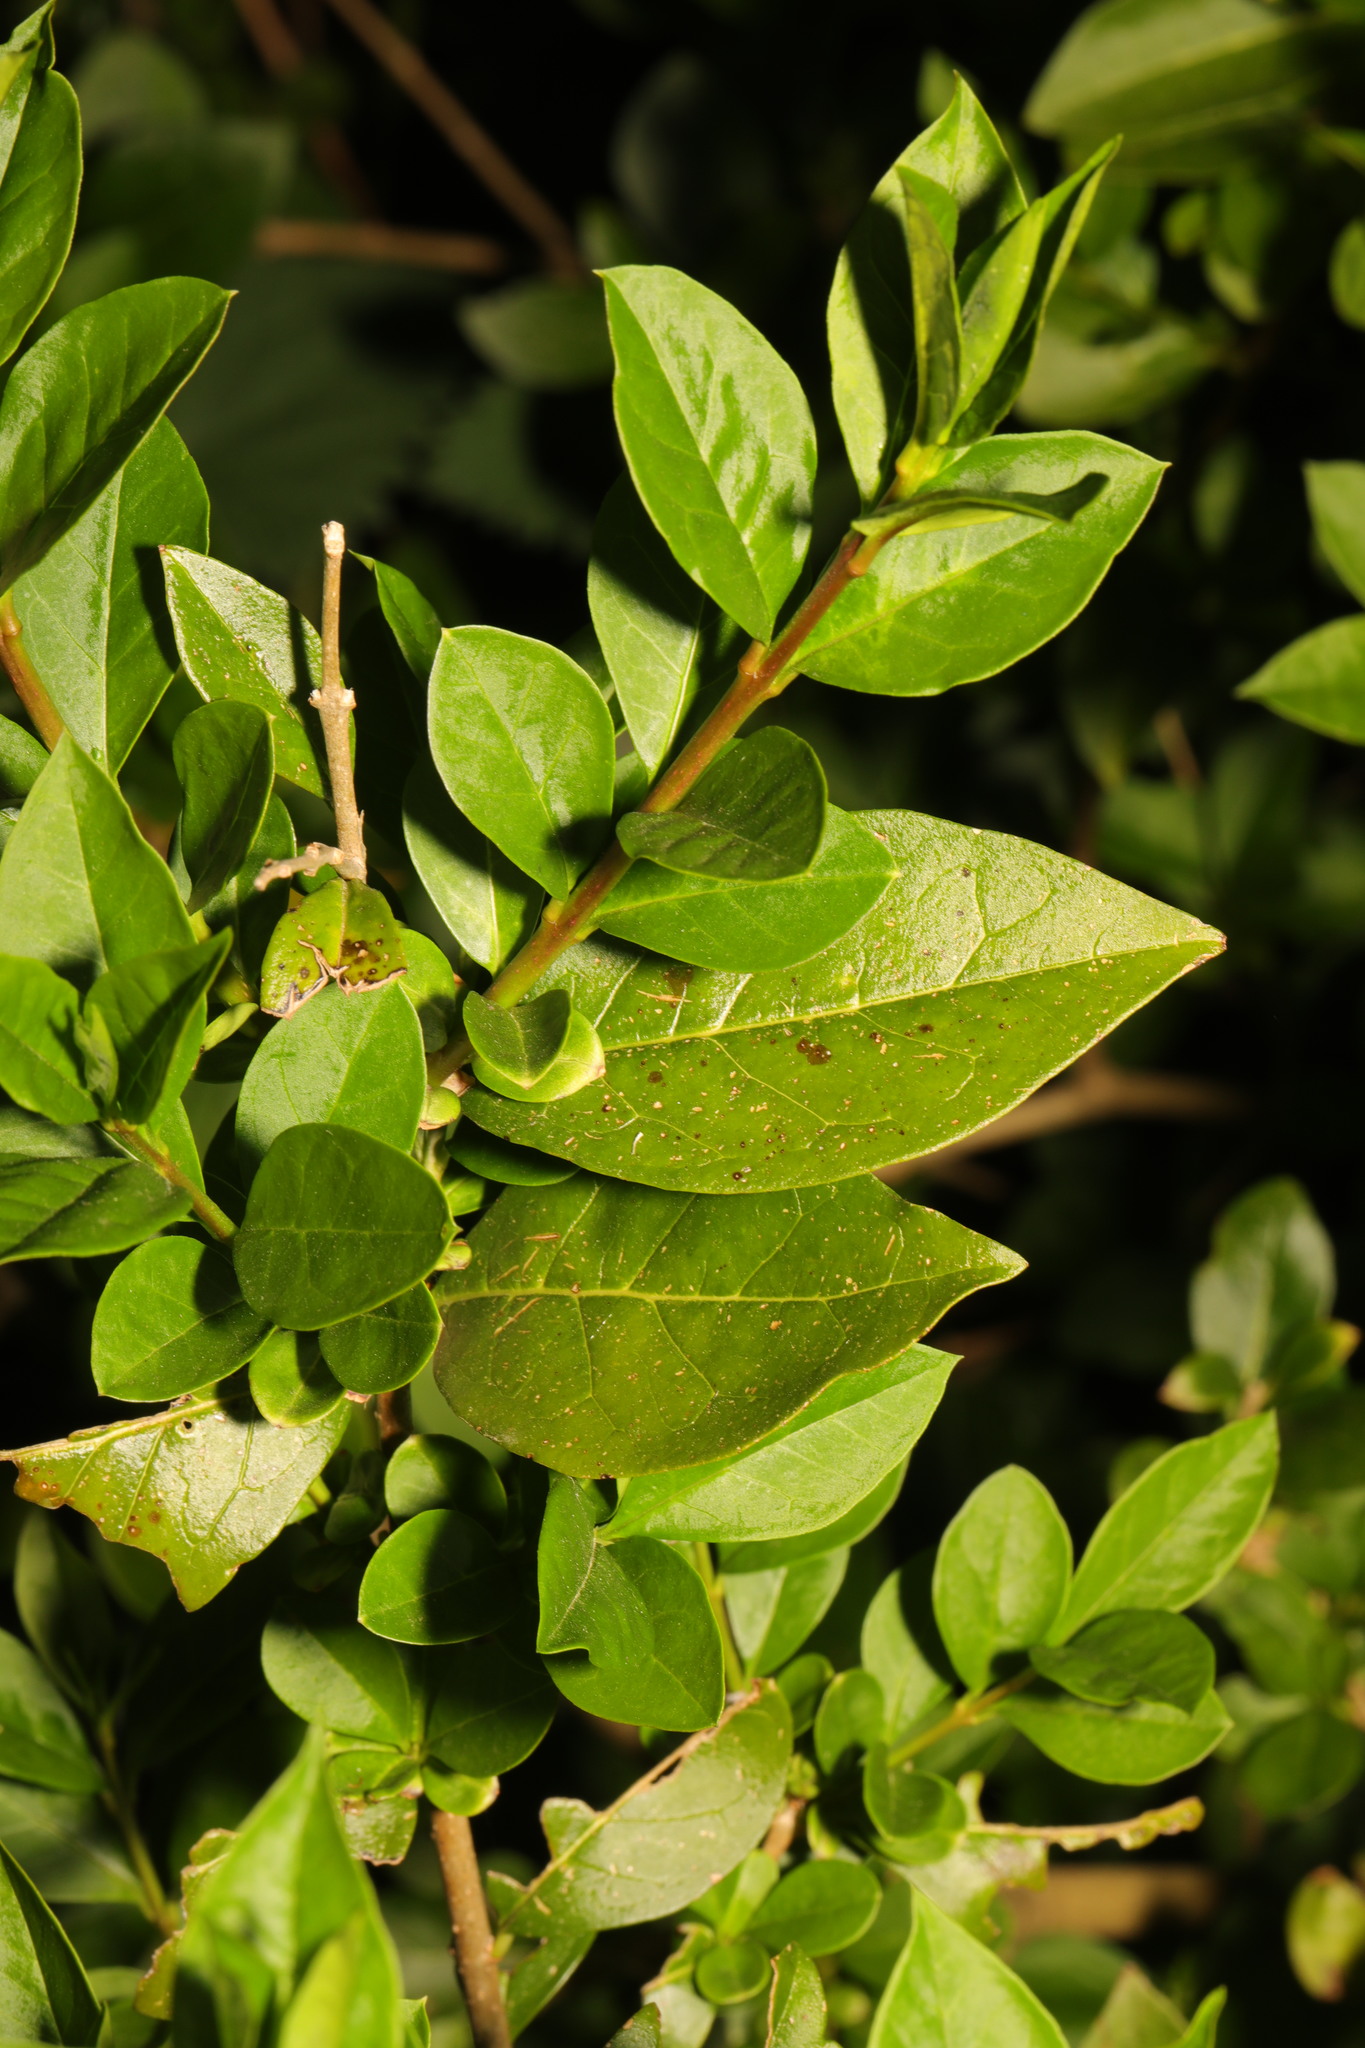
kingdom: Plantae
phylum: Tracheophyta
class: Magnoliopsida
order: Lamiales
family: Oleaceae
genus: Ligustrum
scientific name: Ligustrum ovalifolium
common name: California privet
